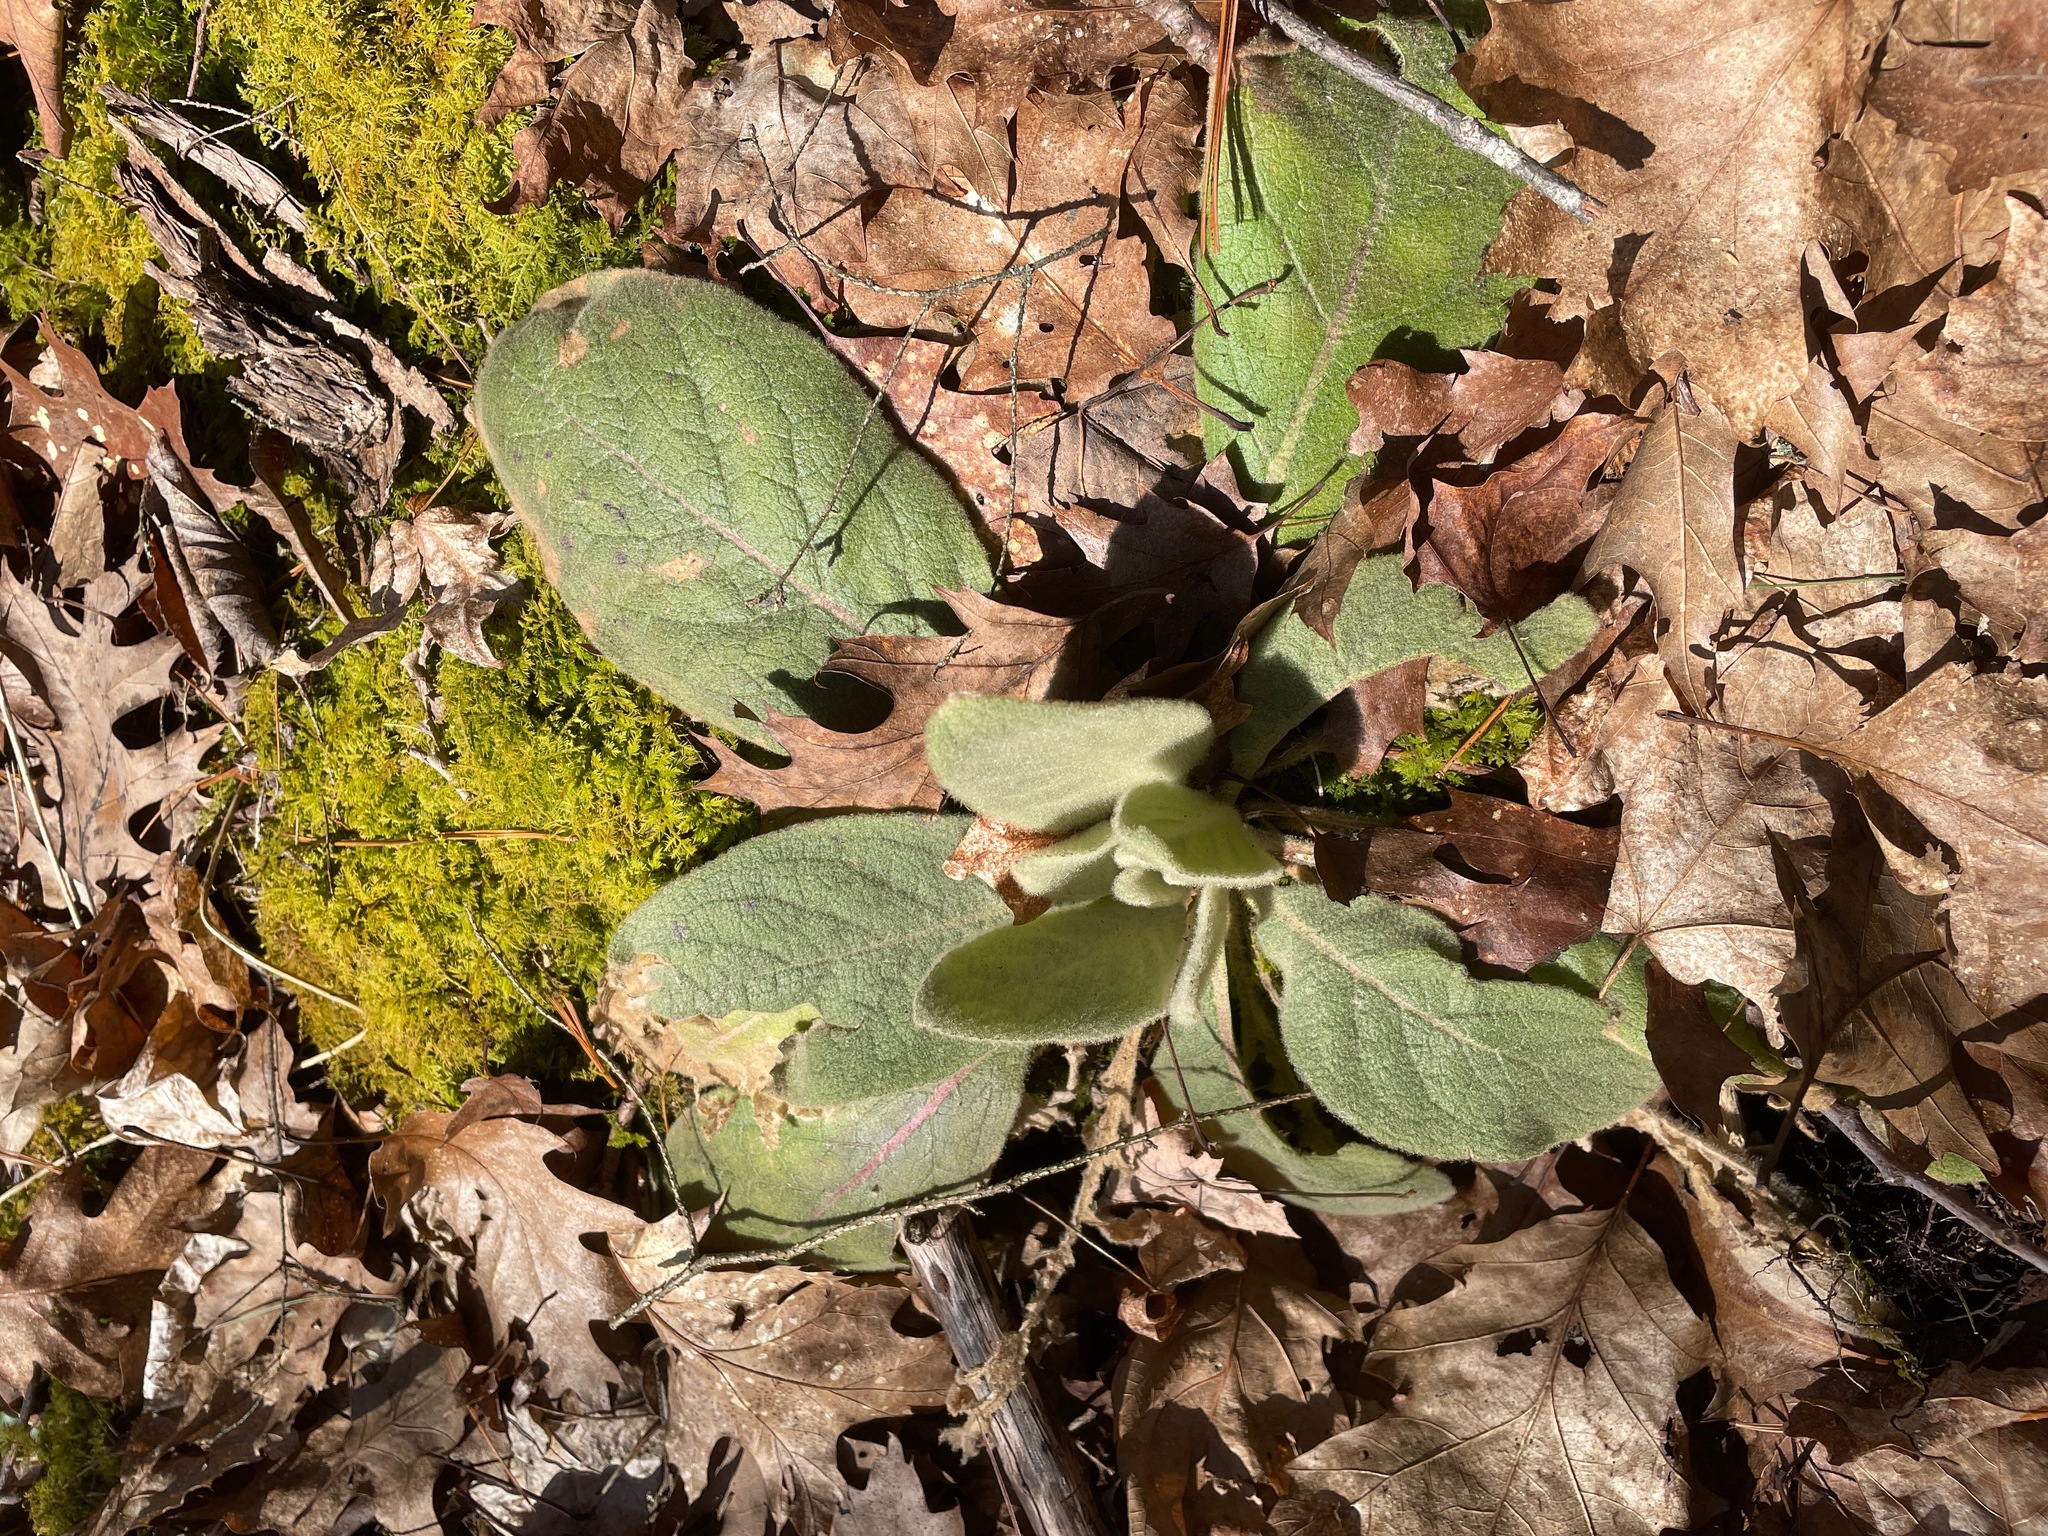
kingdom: Plantae
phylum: Tracheophyta
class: Magnoliopsida
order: Lamiales
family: Scrophulariaceae
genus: Verbascum
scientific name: Verbascum thapsus
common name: Common mullein
